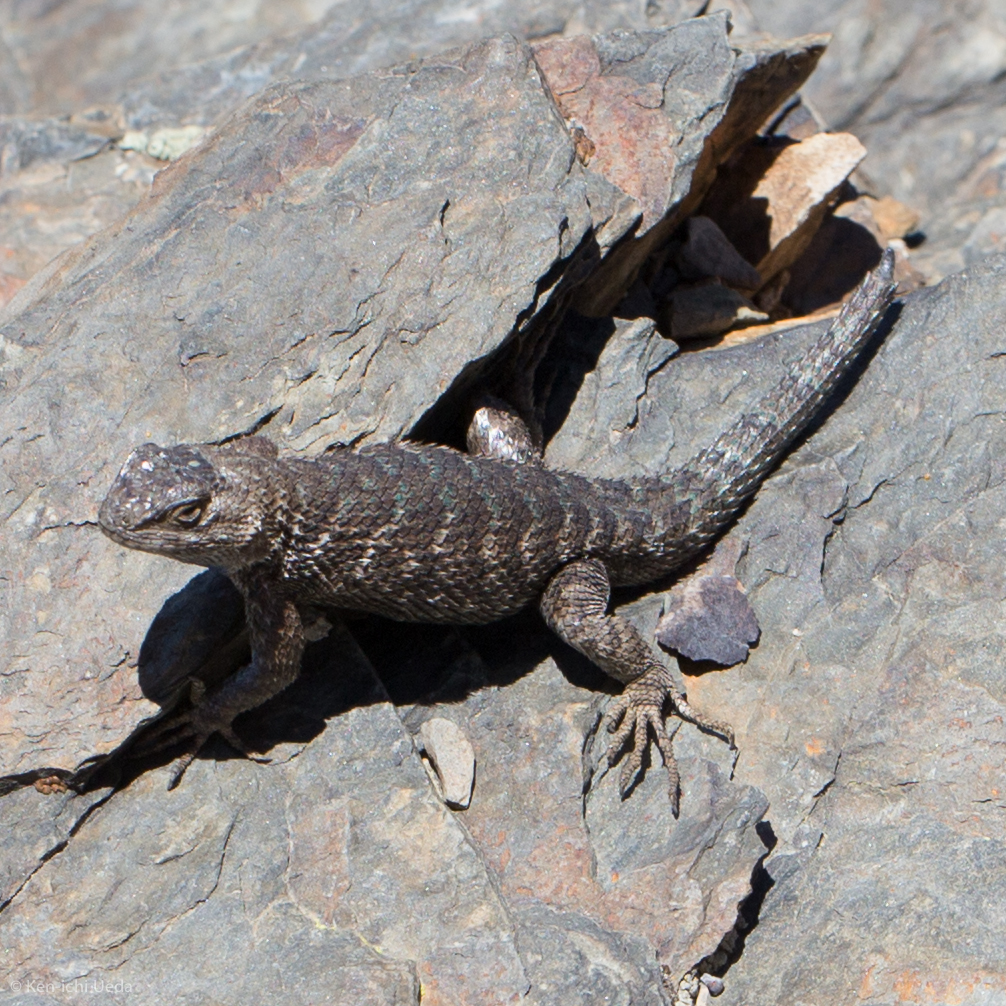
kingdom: Animalia
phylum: Chordata
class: Squamata
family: Phrynosomatidae
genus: Sceloporus
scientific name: Sceloporus occidentalis
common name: Western fence lizard
